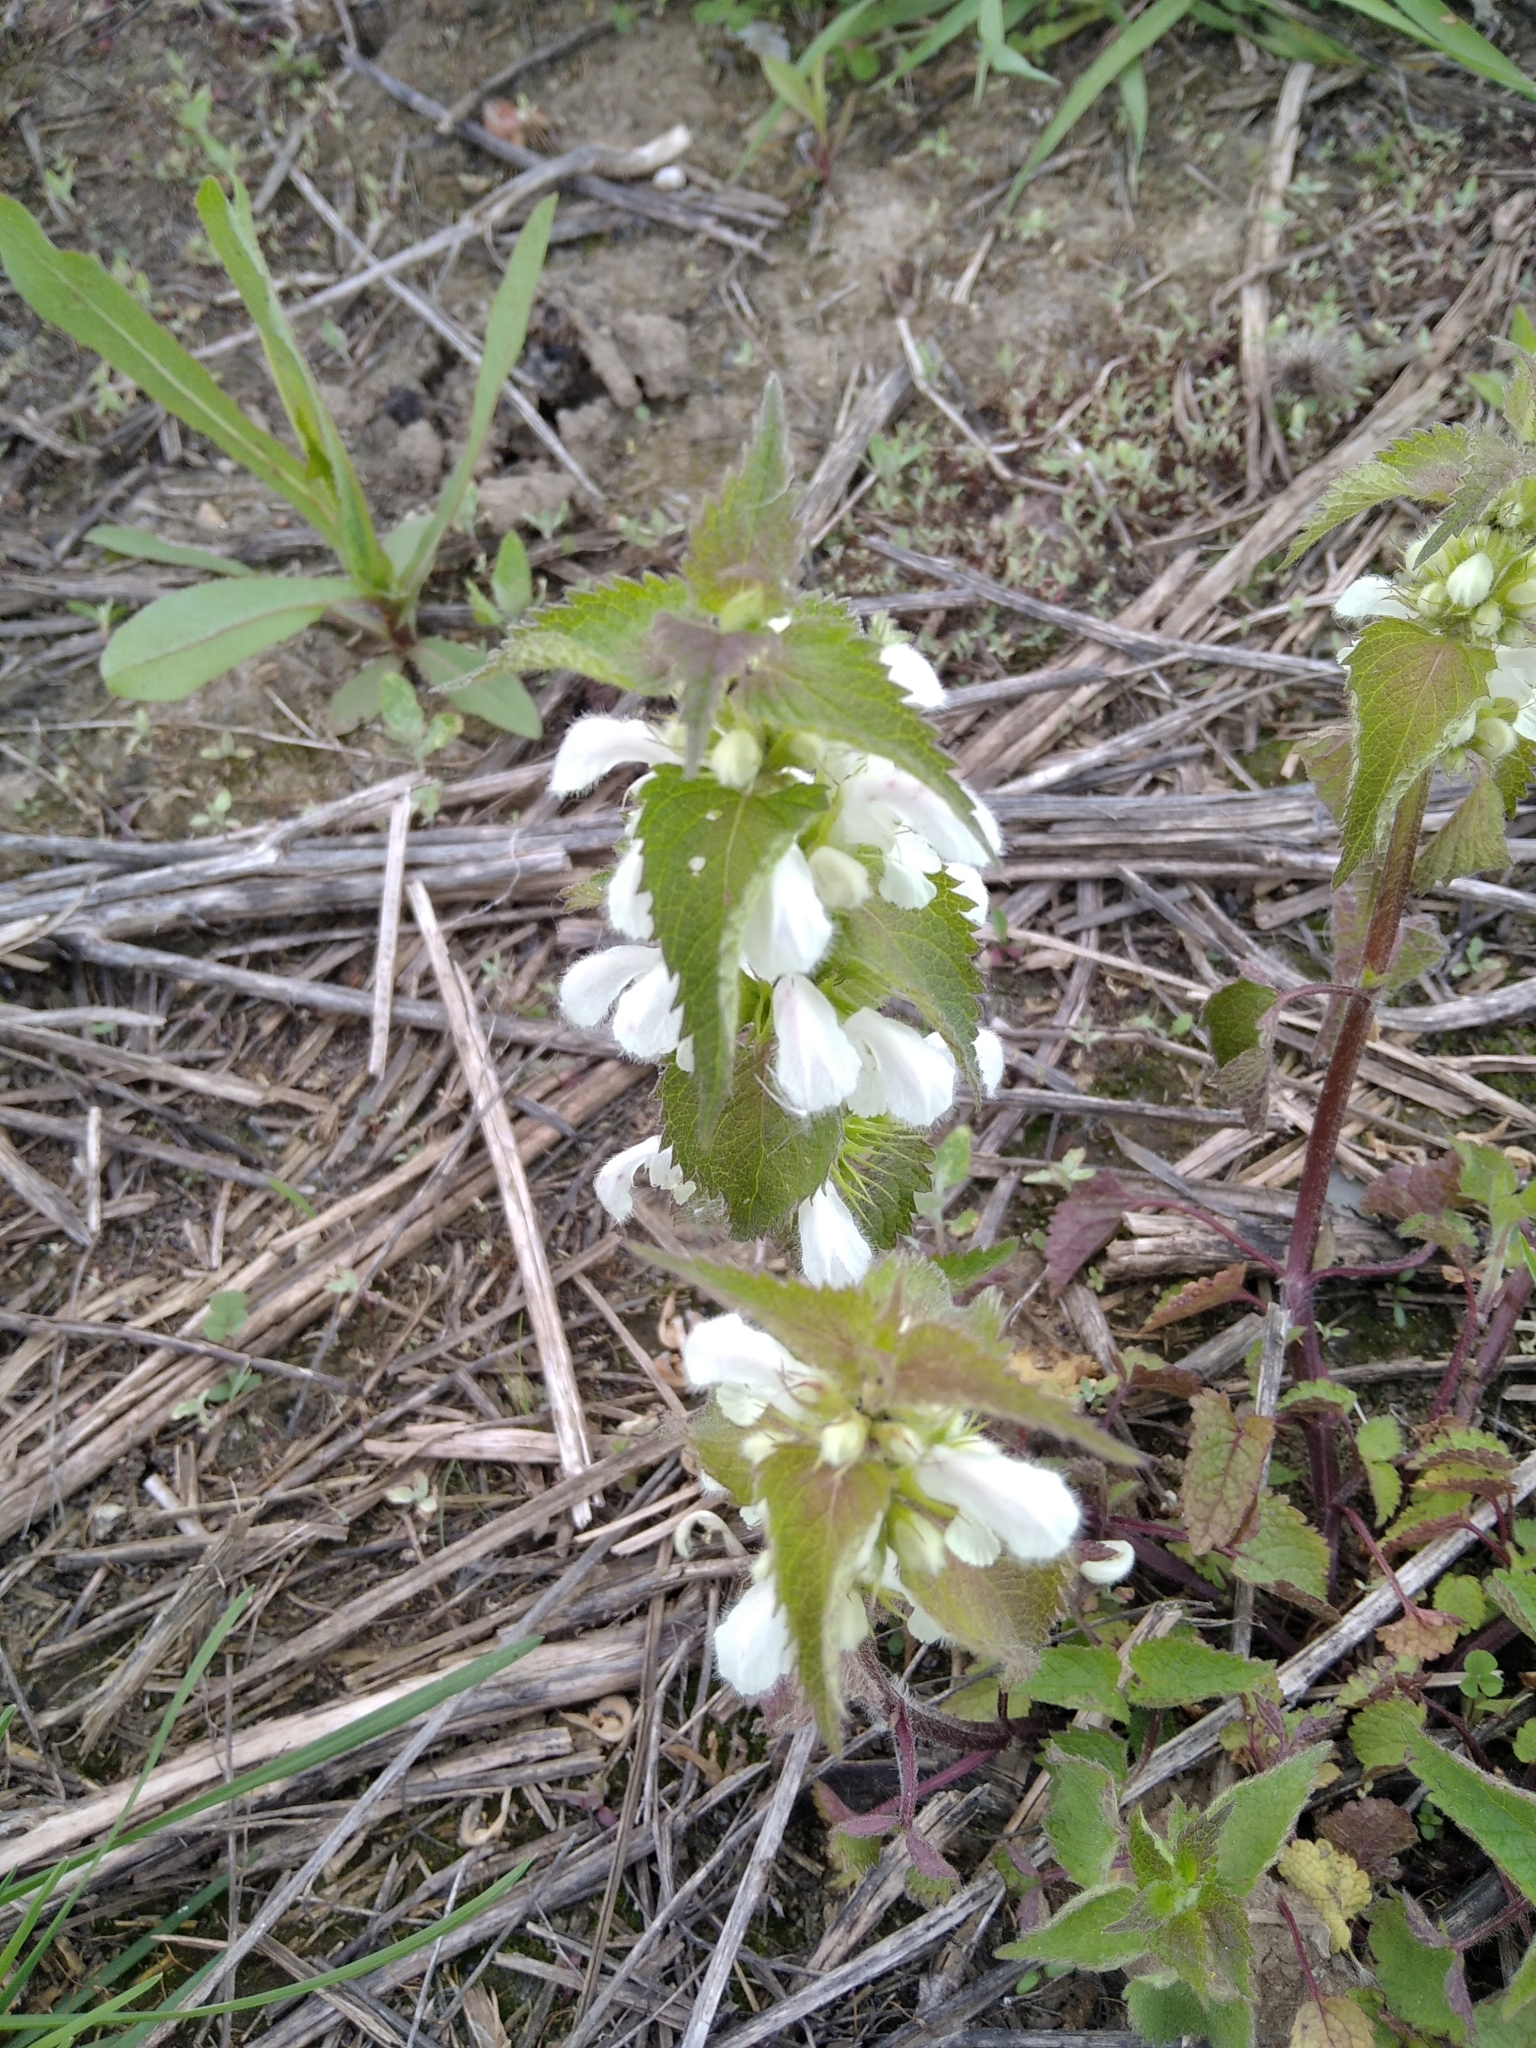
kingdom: Plantae
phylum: Tracheophyta
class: Magnoliopsida
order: Lamiales
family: Lamiaceae
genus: Lamium
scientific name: Lamium album
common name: White dead-nettle
